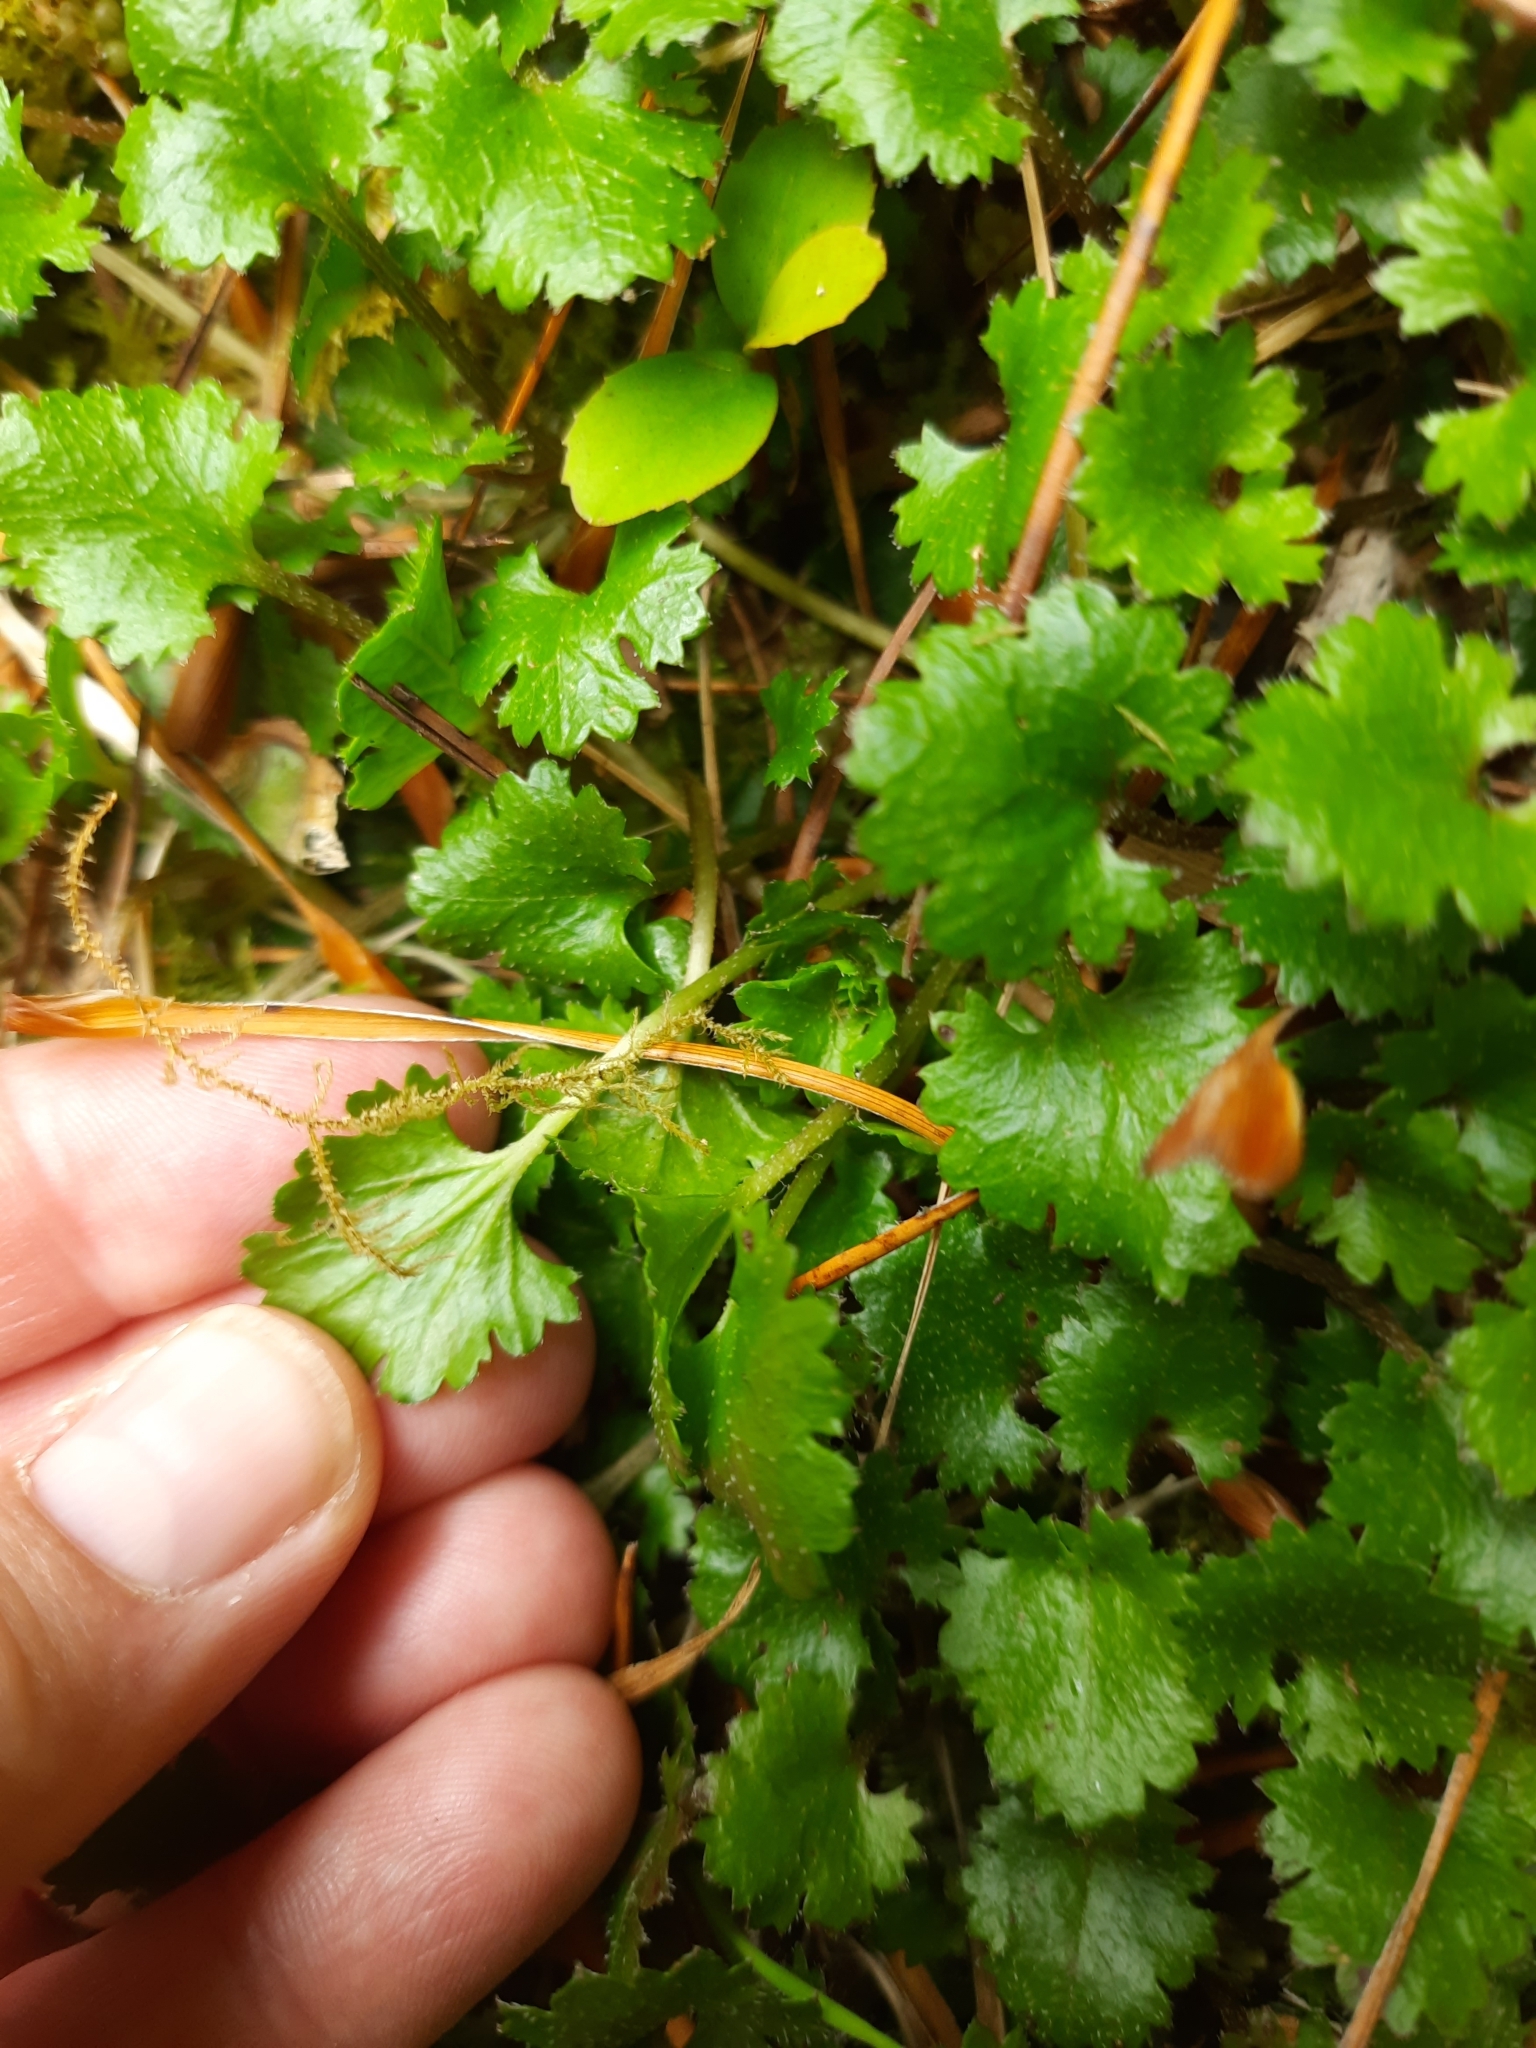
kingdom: Plantae
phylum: Tracheophyta
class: Magnoliopsida
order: Gunnerales
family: Gunneraceae
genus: Gunnera
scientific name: Gunnera monoica
